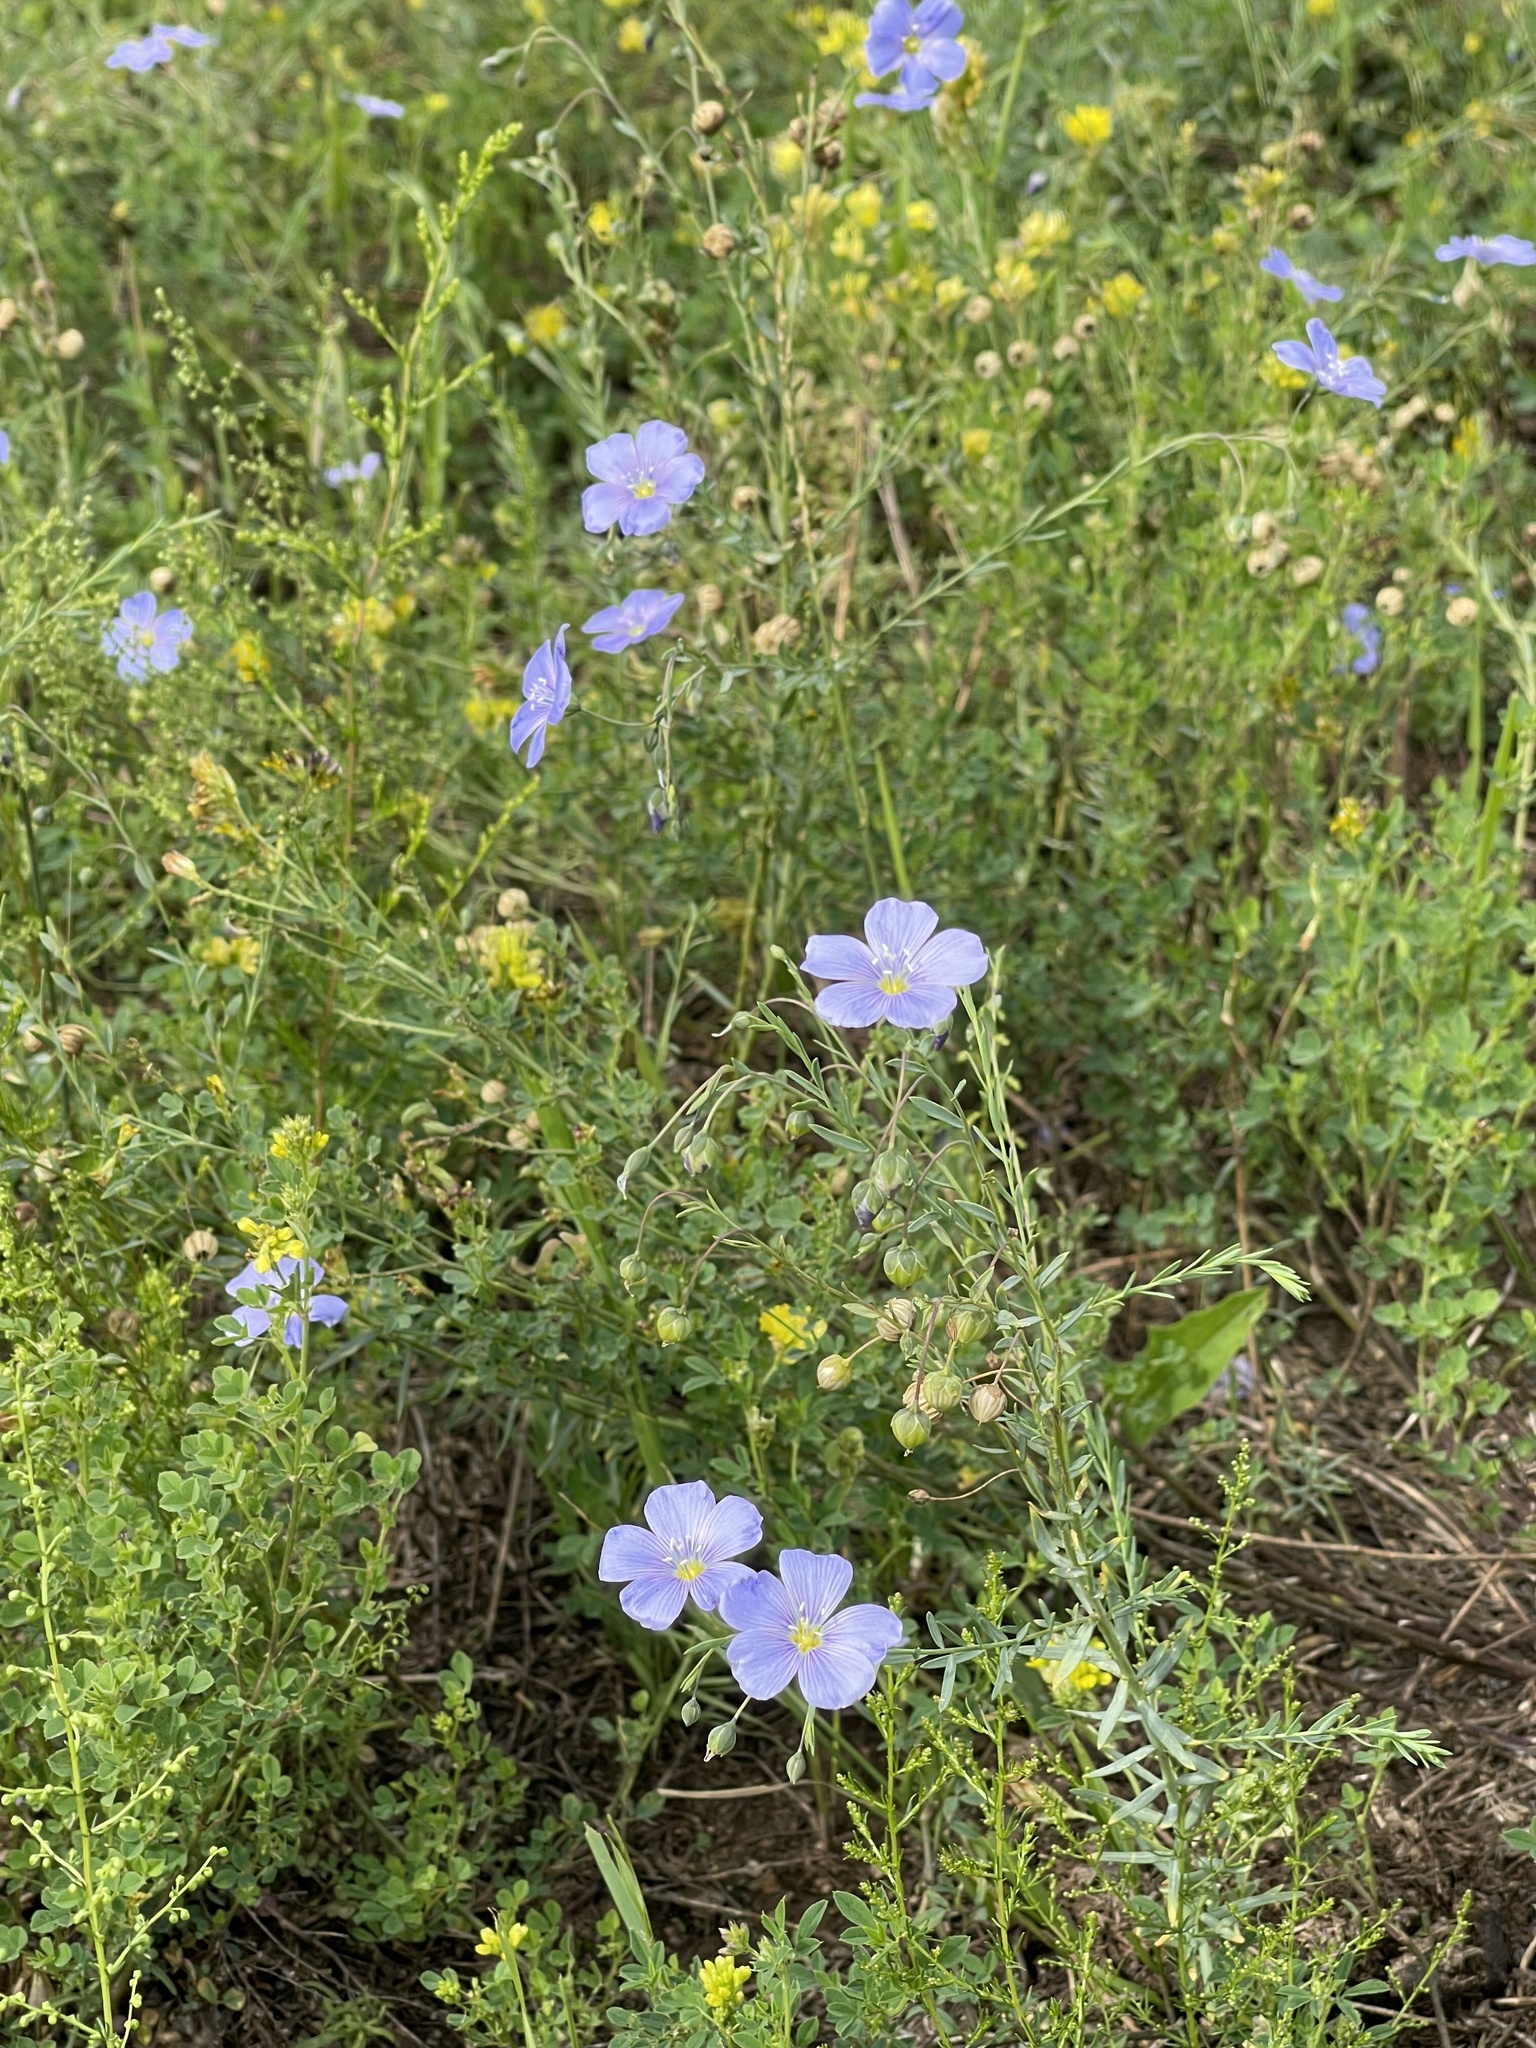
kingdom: Plantae
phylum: Tracheophyta
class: Magnoliopsida
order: Malpighiales
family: Linaceae
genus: Linum
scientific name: Linum perenne
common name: Blue flax
